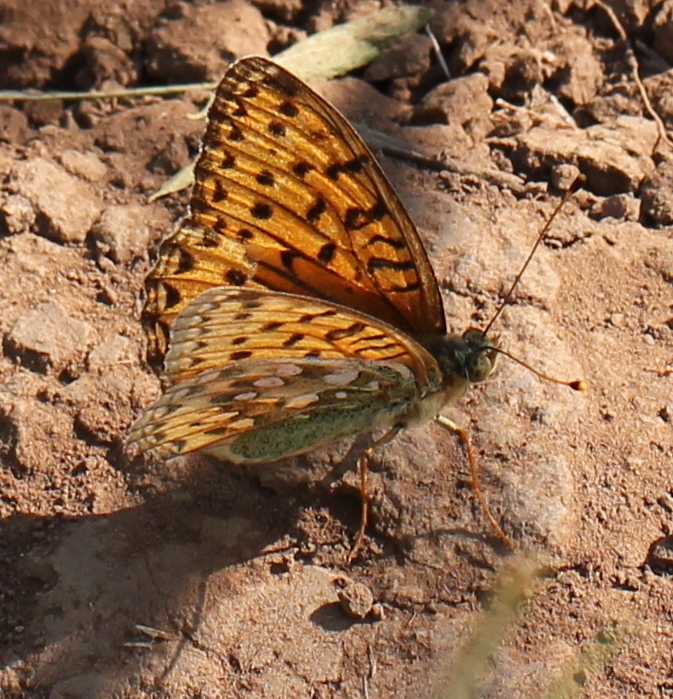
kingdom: Animalia
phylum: Arthropoda
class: Insecta
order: Lepidoptera
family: Nymphalidae
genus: Speyeria
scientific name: Speyeria aglaja
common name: Dark green fritillary
